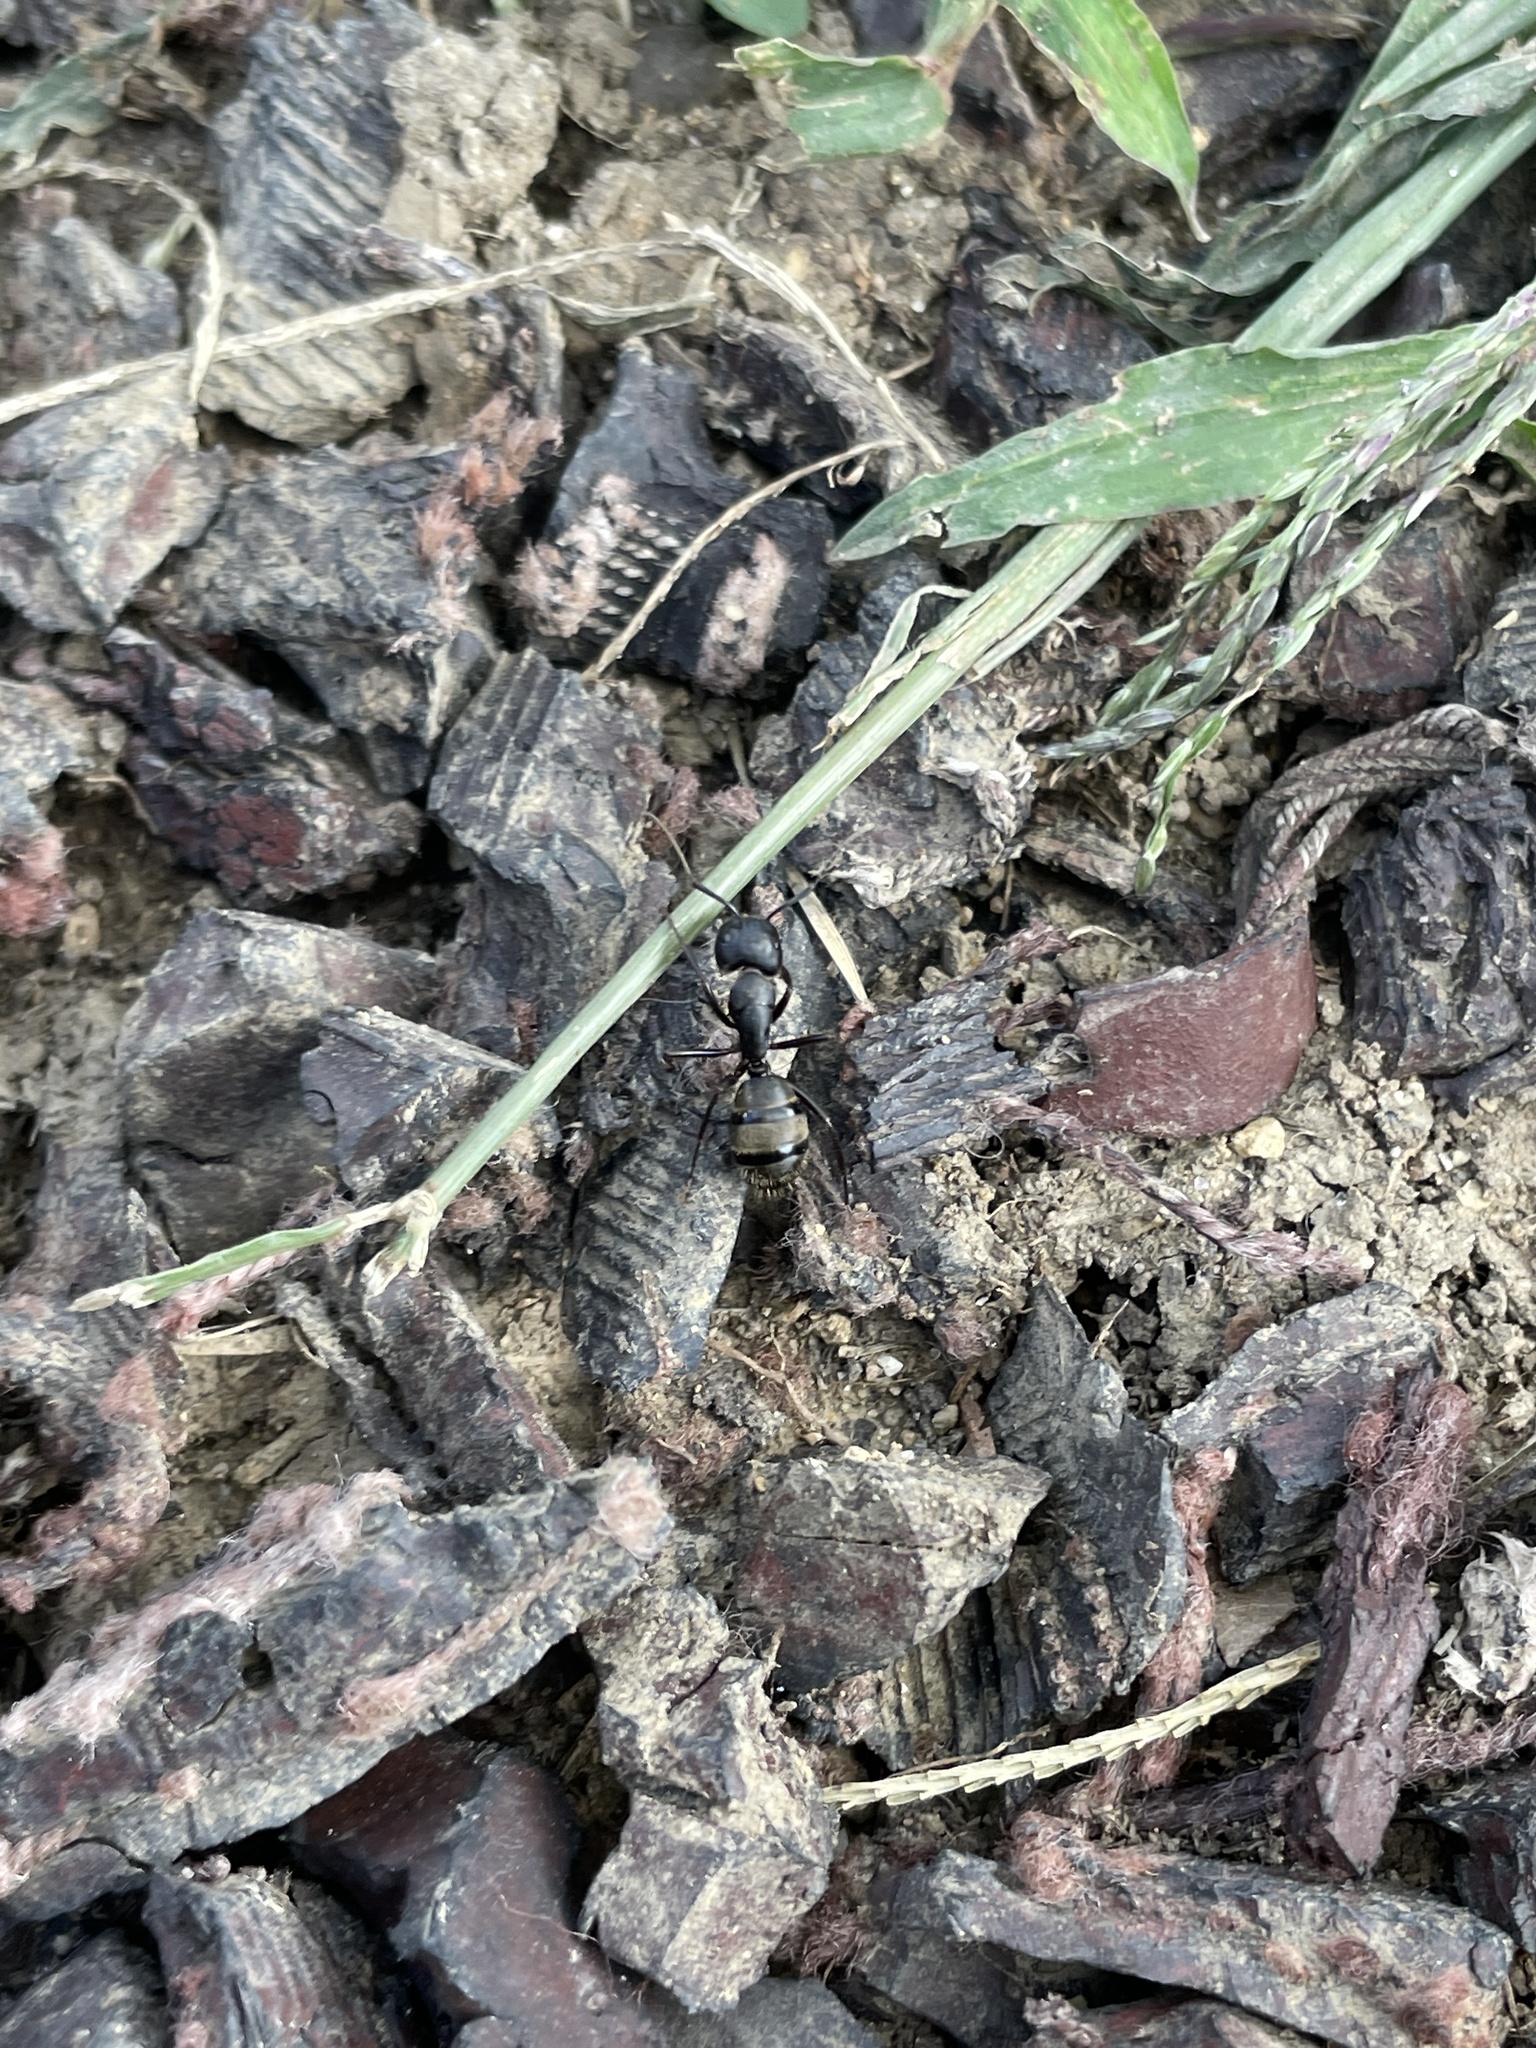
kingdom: Animalia
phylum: Arthropoda
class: Insecta
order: Hymenoptera
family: Formicidae
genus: Camponotus
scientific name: Camponotus pennsylvanicus
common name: Black carpenter ant
